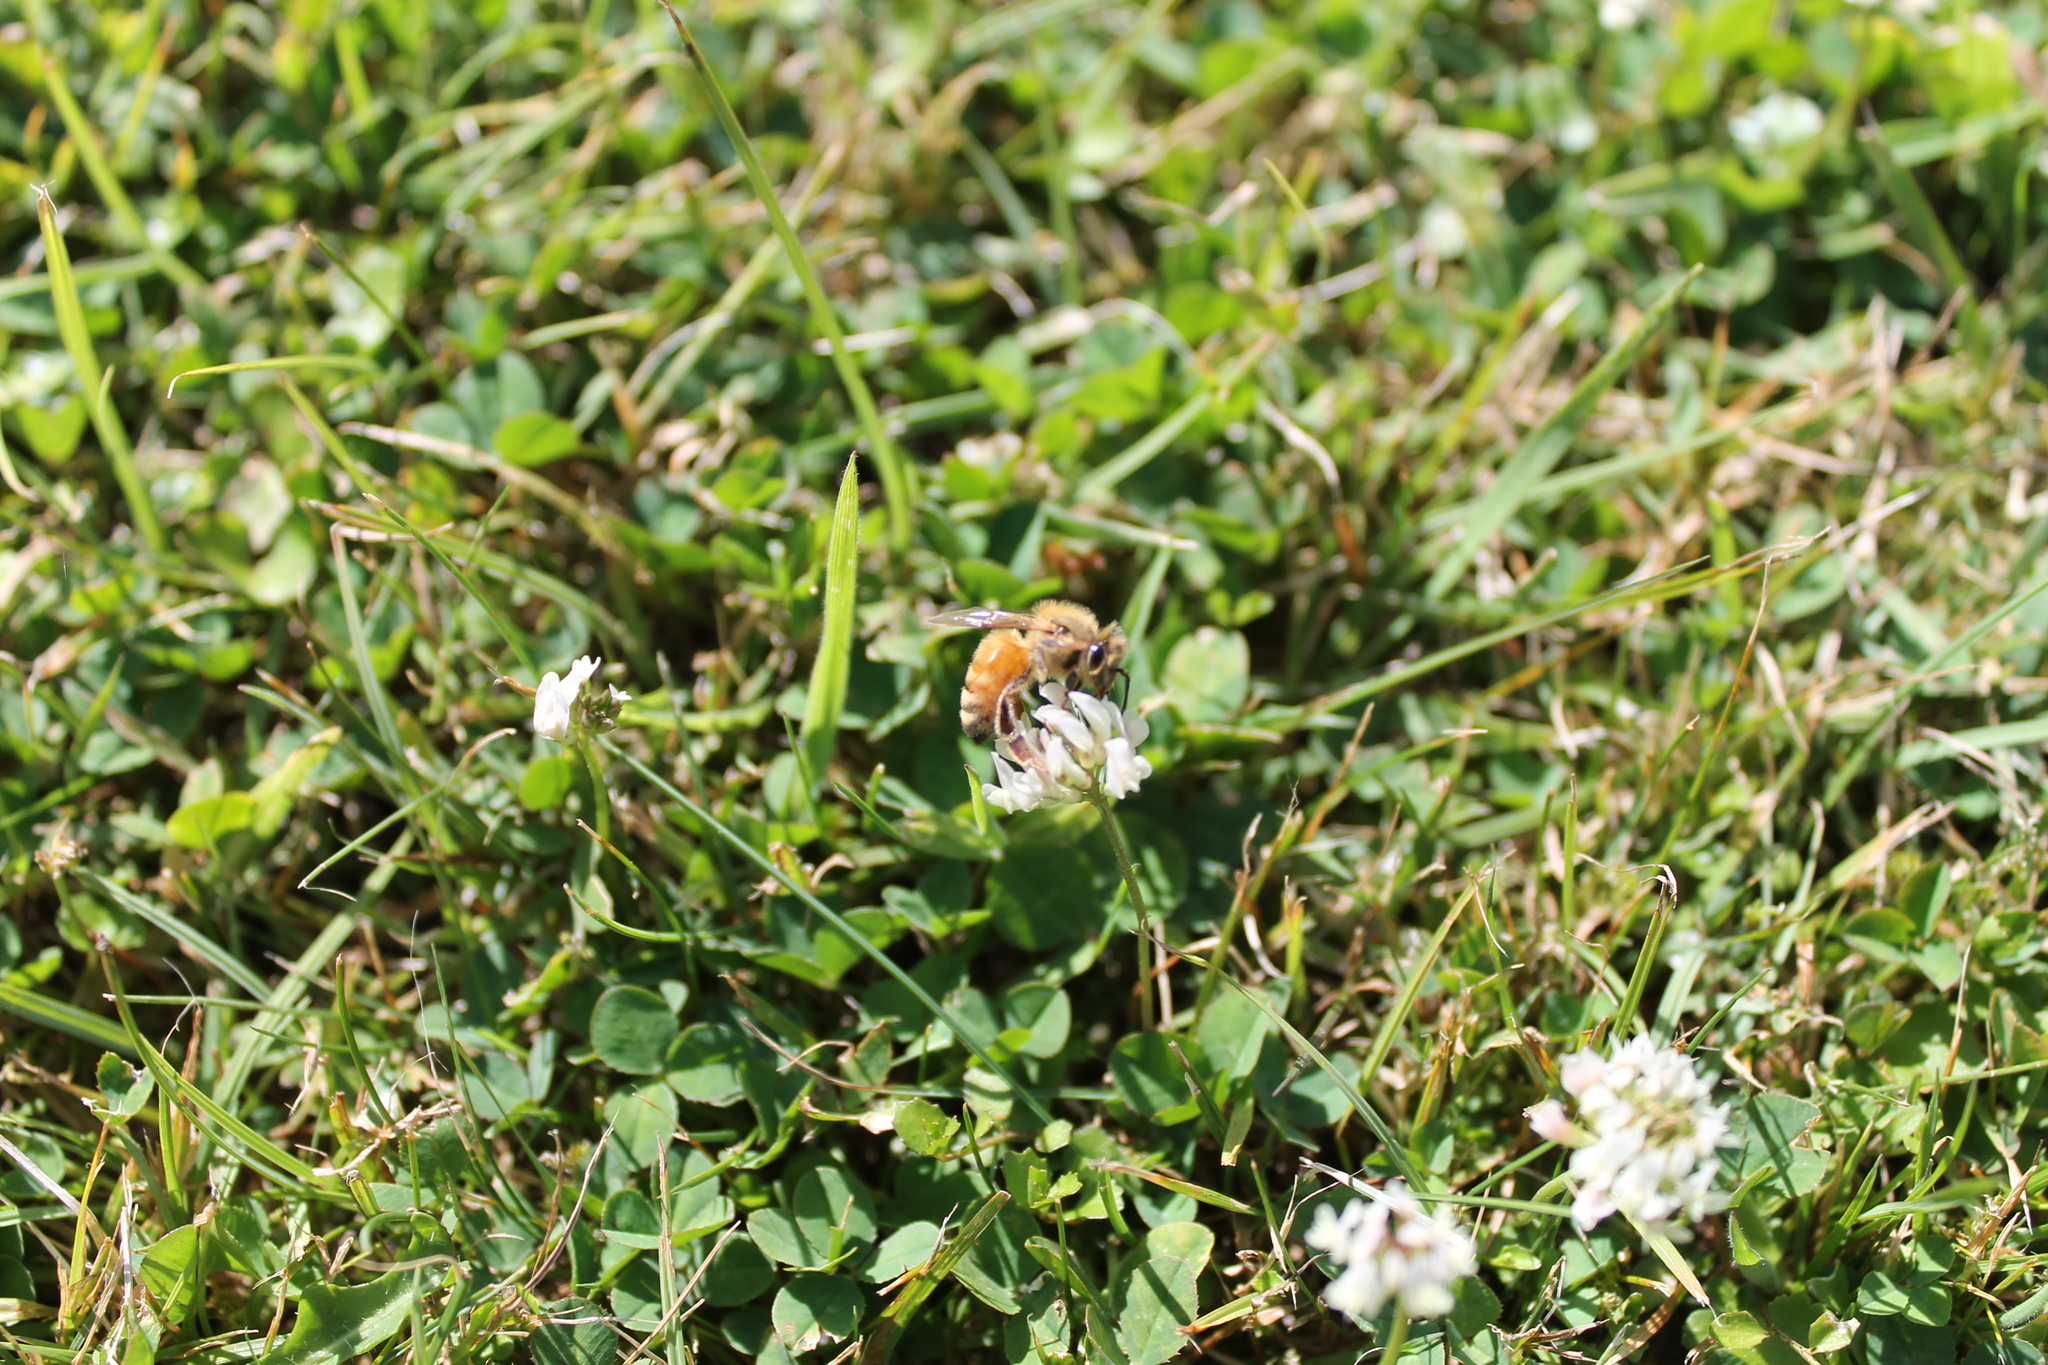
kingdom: Animalia
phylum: Arthropoda
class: Insecta
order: Hymenoptera
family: Apidae
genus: Apis
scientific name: Apis mellifera
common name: Honey bee
